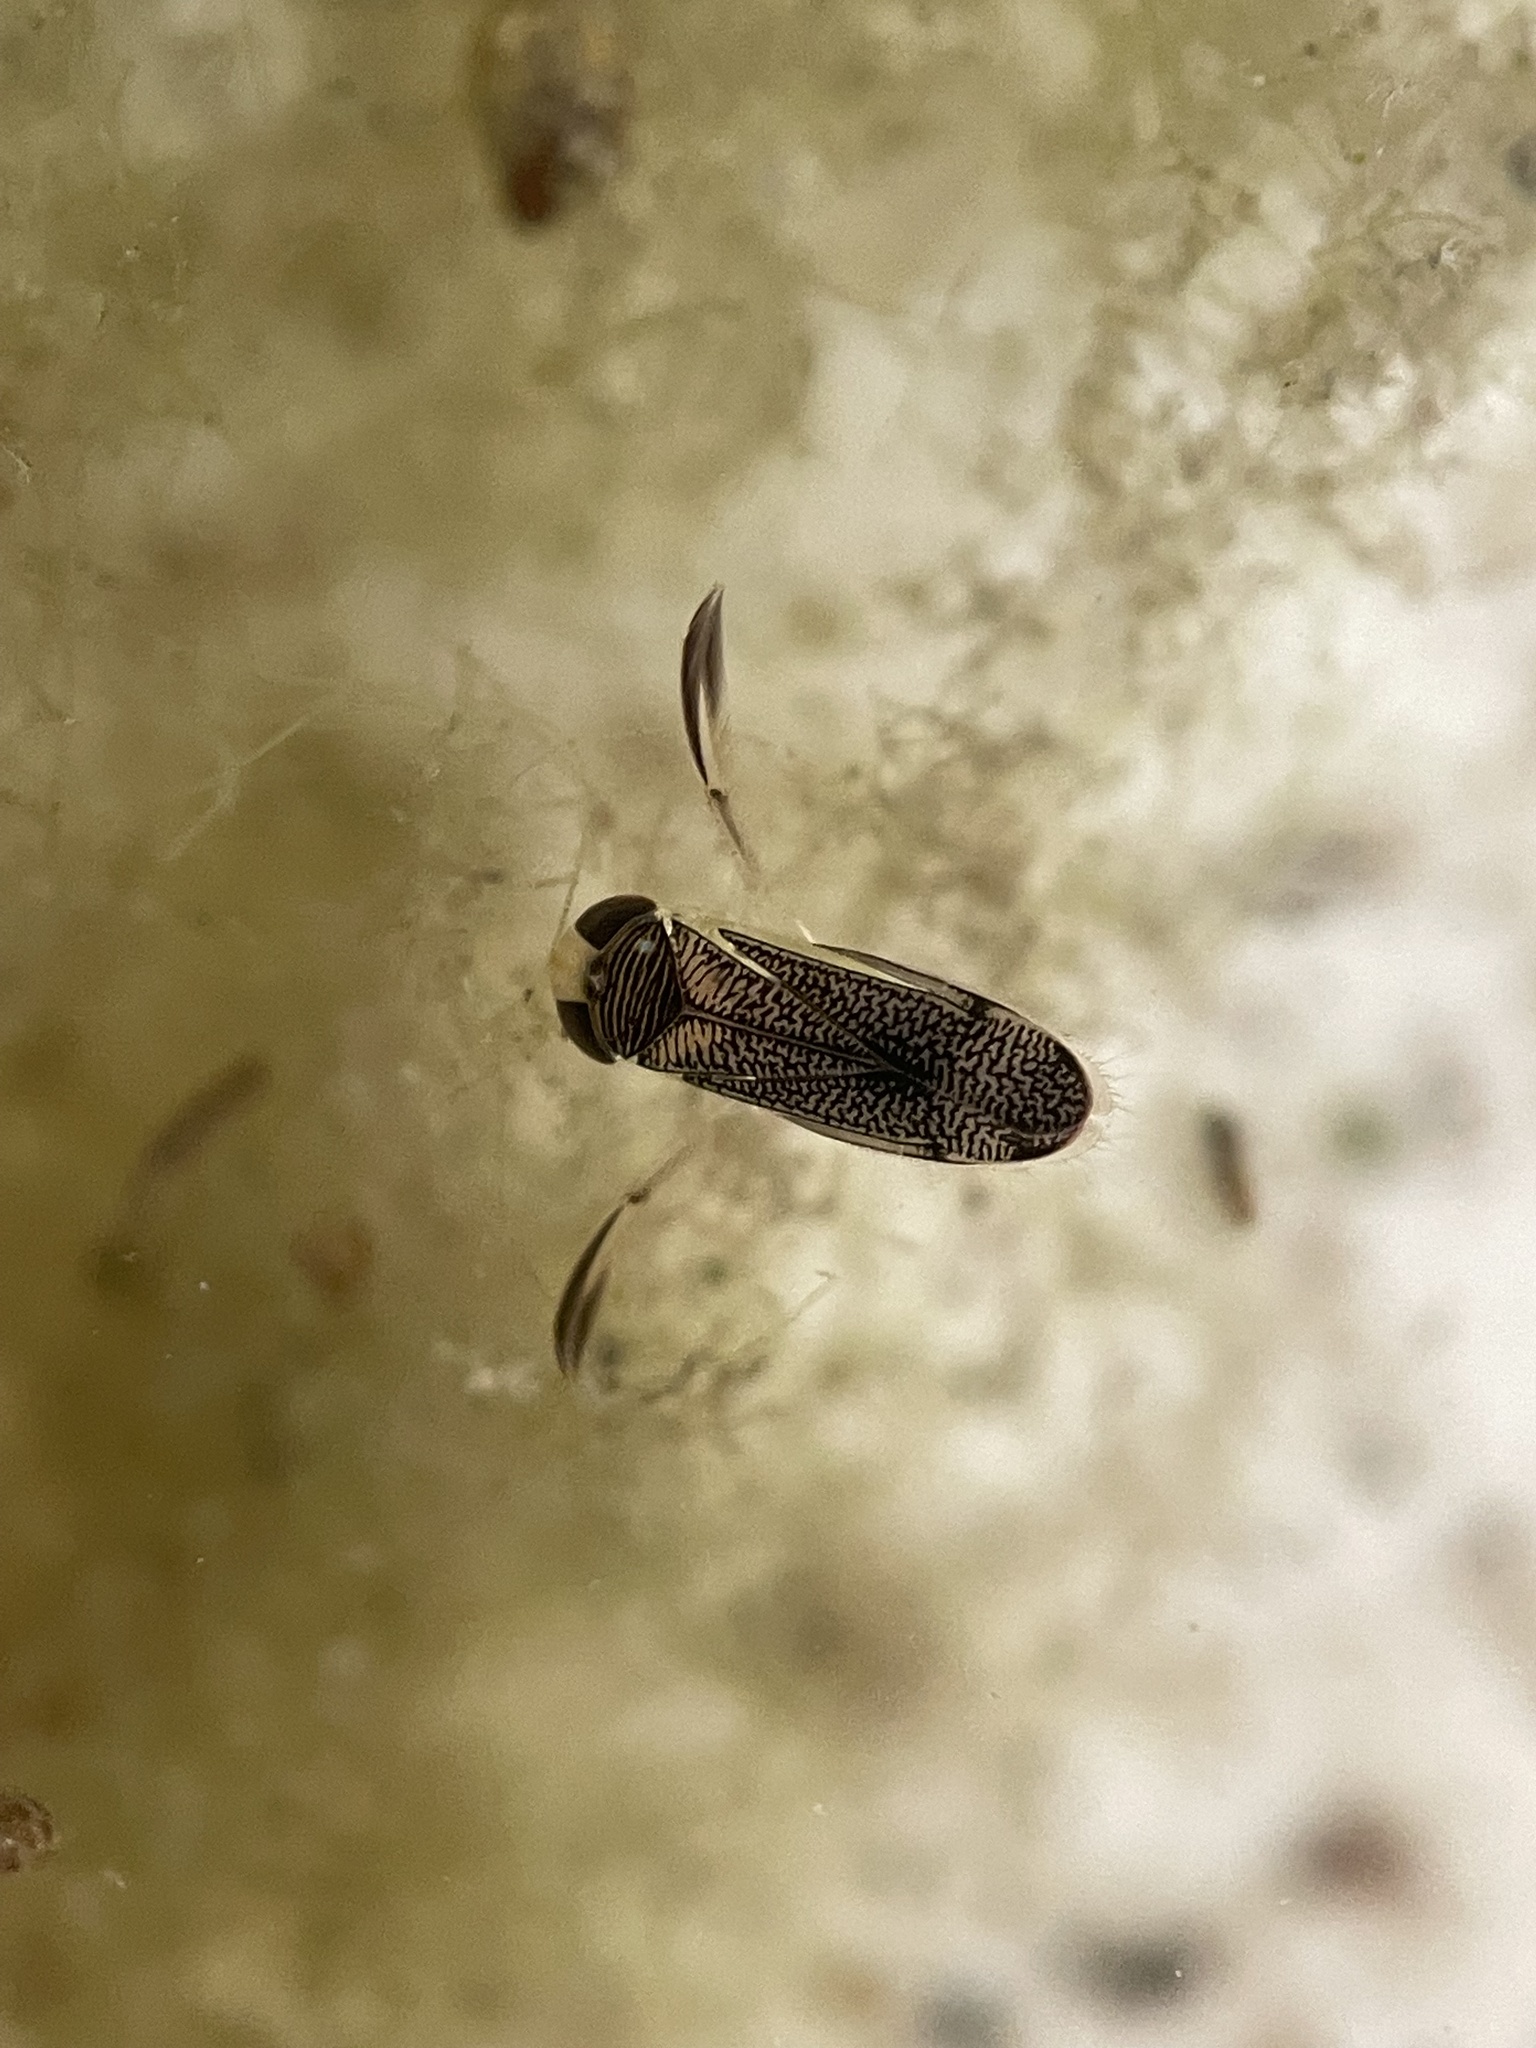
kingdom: Animalia
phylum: Arthropoda
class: Insecta
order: Hemiptera
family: Corixidae
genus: Trichocorixa
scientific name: Trichocorixa
